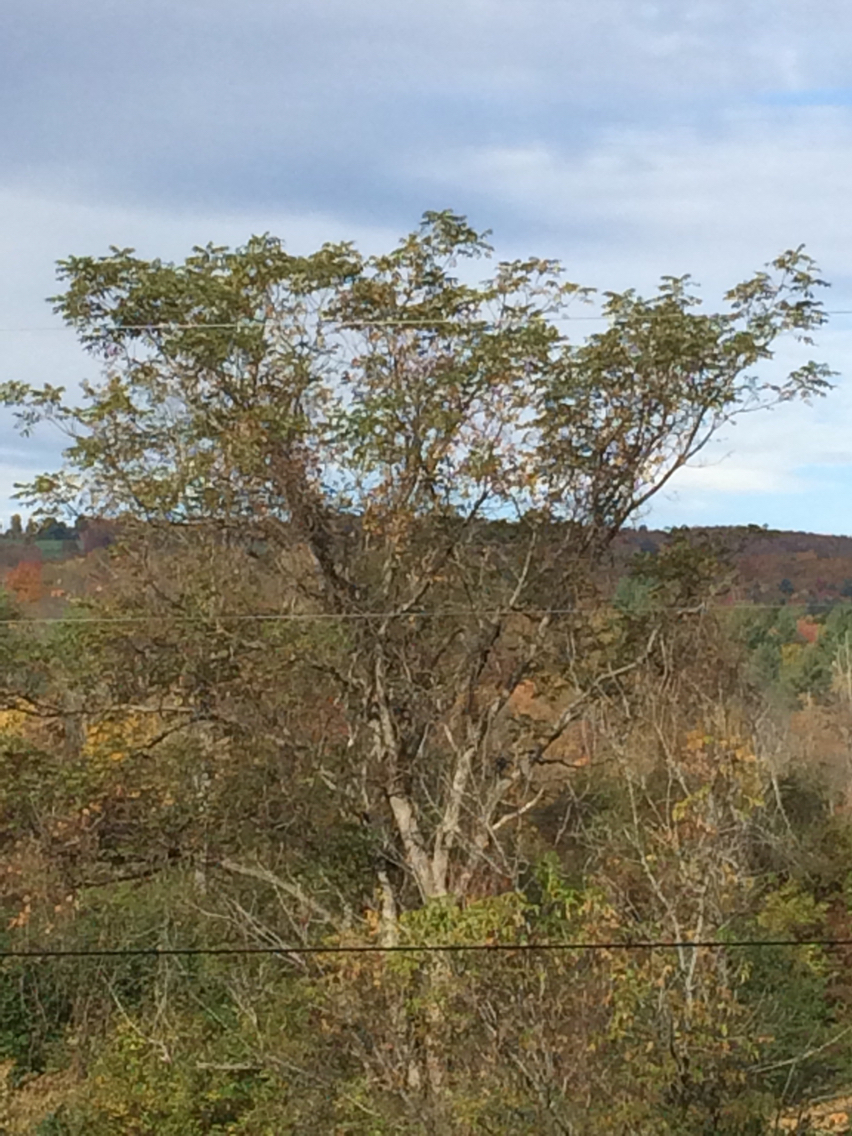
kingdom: Plantae
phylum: Tracheophyta
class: Magnoliopsida
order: Fagales
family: Juglandaceae
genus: Juglans
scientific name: Juglans cinerea
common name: Butternut
